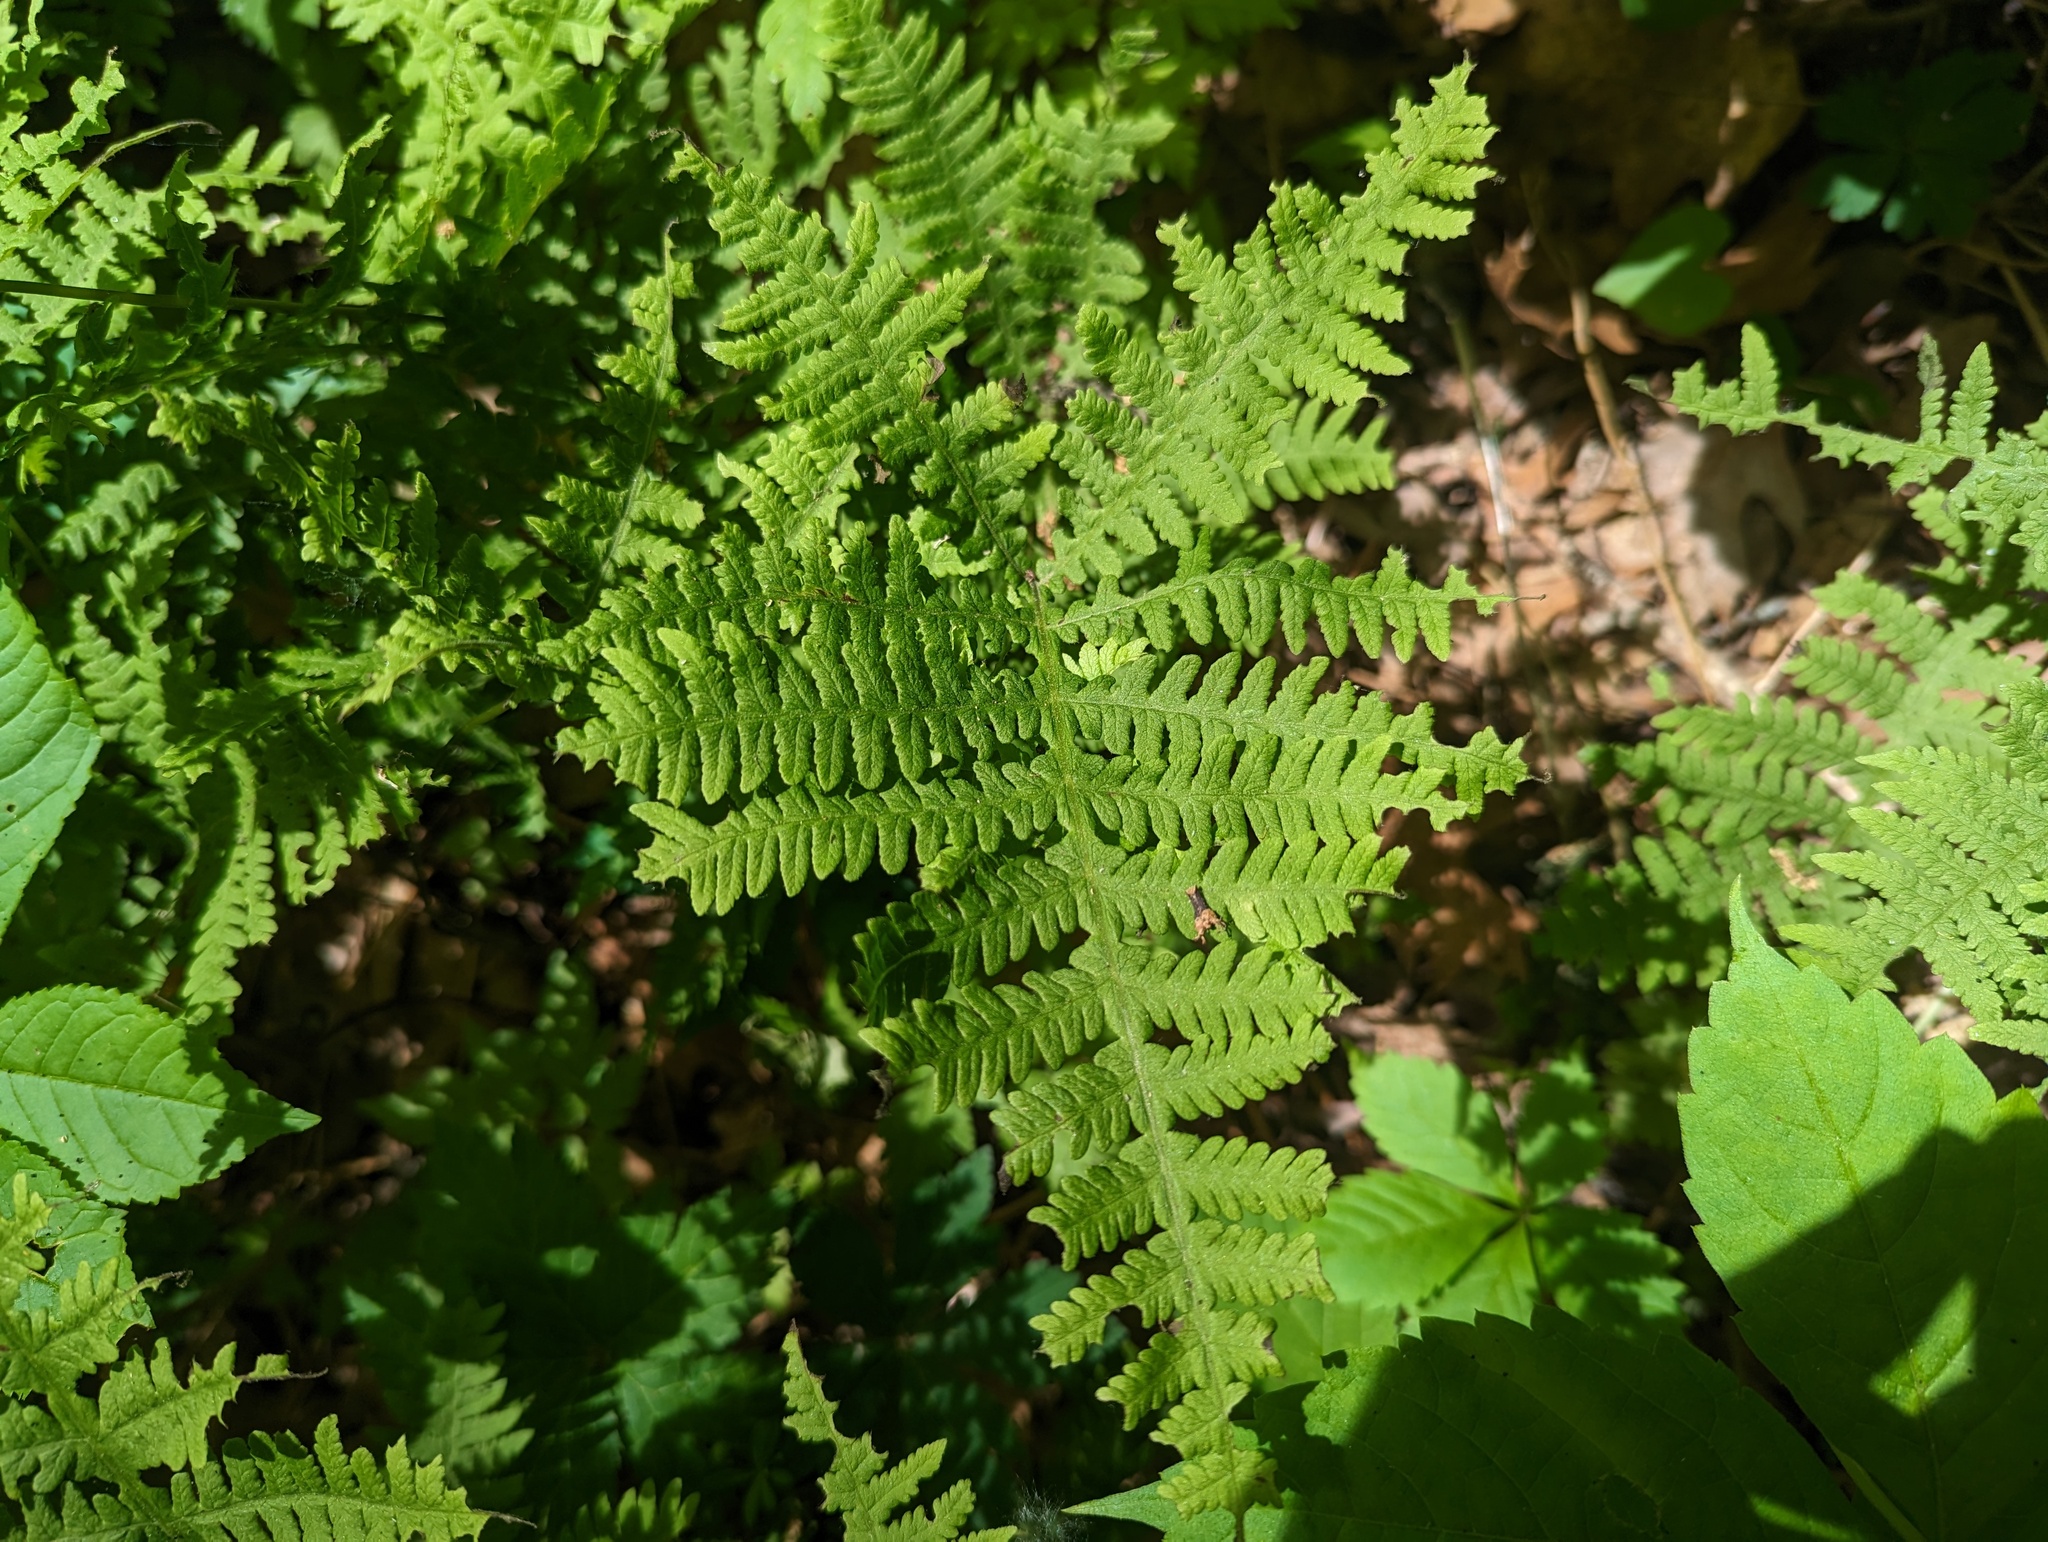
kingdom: Plantae
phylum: Tracheophyta
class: Polypodiopsida
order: Polypodiales
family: Thelypteridaceae
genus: Phegopteris
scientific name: Phegopteris hexagonoptera
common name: Broad beech fern
